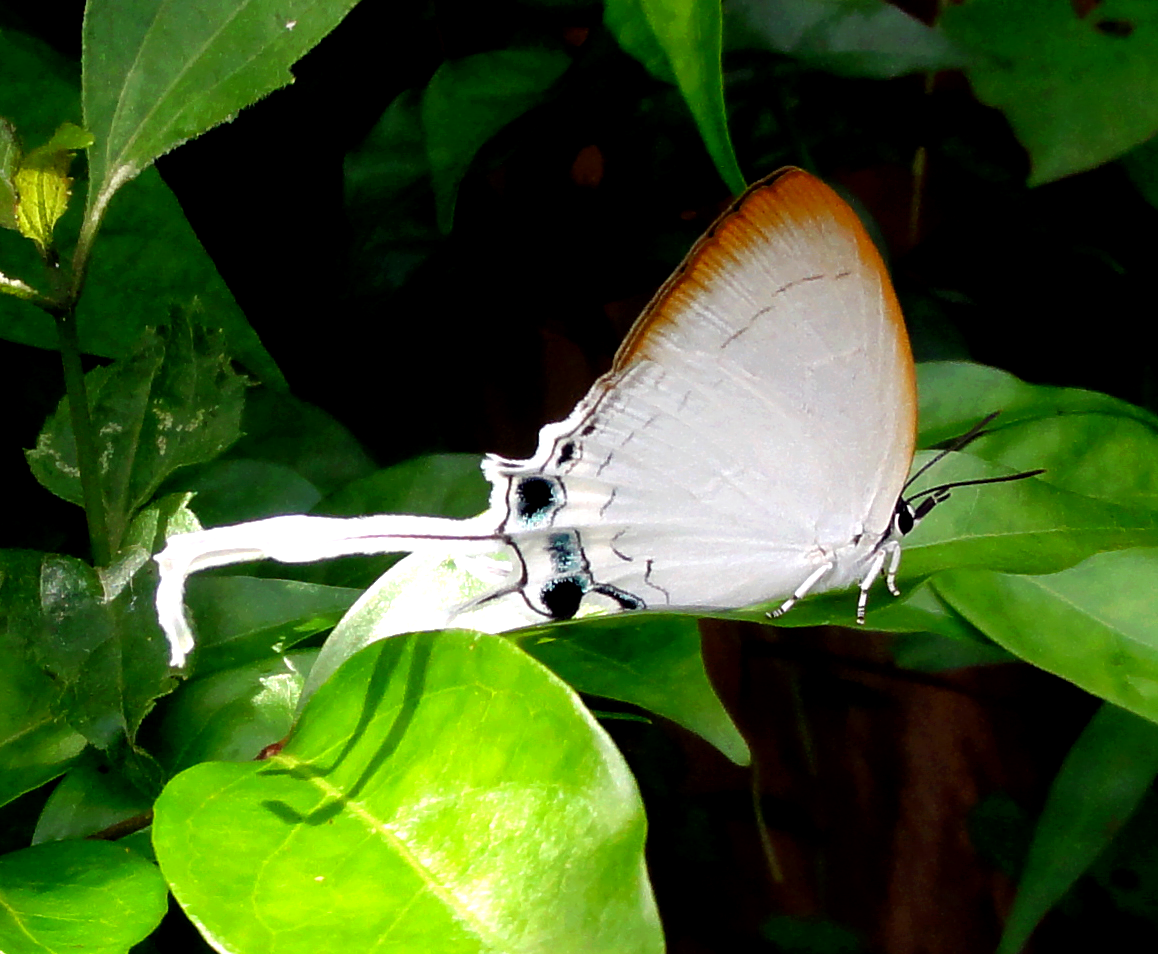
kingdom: Animalia
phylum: Arthropoda
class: Insecta
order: Lepidoptera
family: Lycaenidae
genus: Cheritra
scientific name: Cheritra freja
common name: Common imperial
